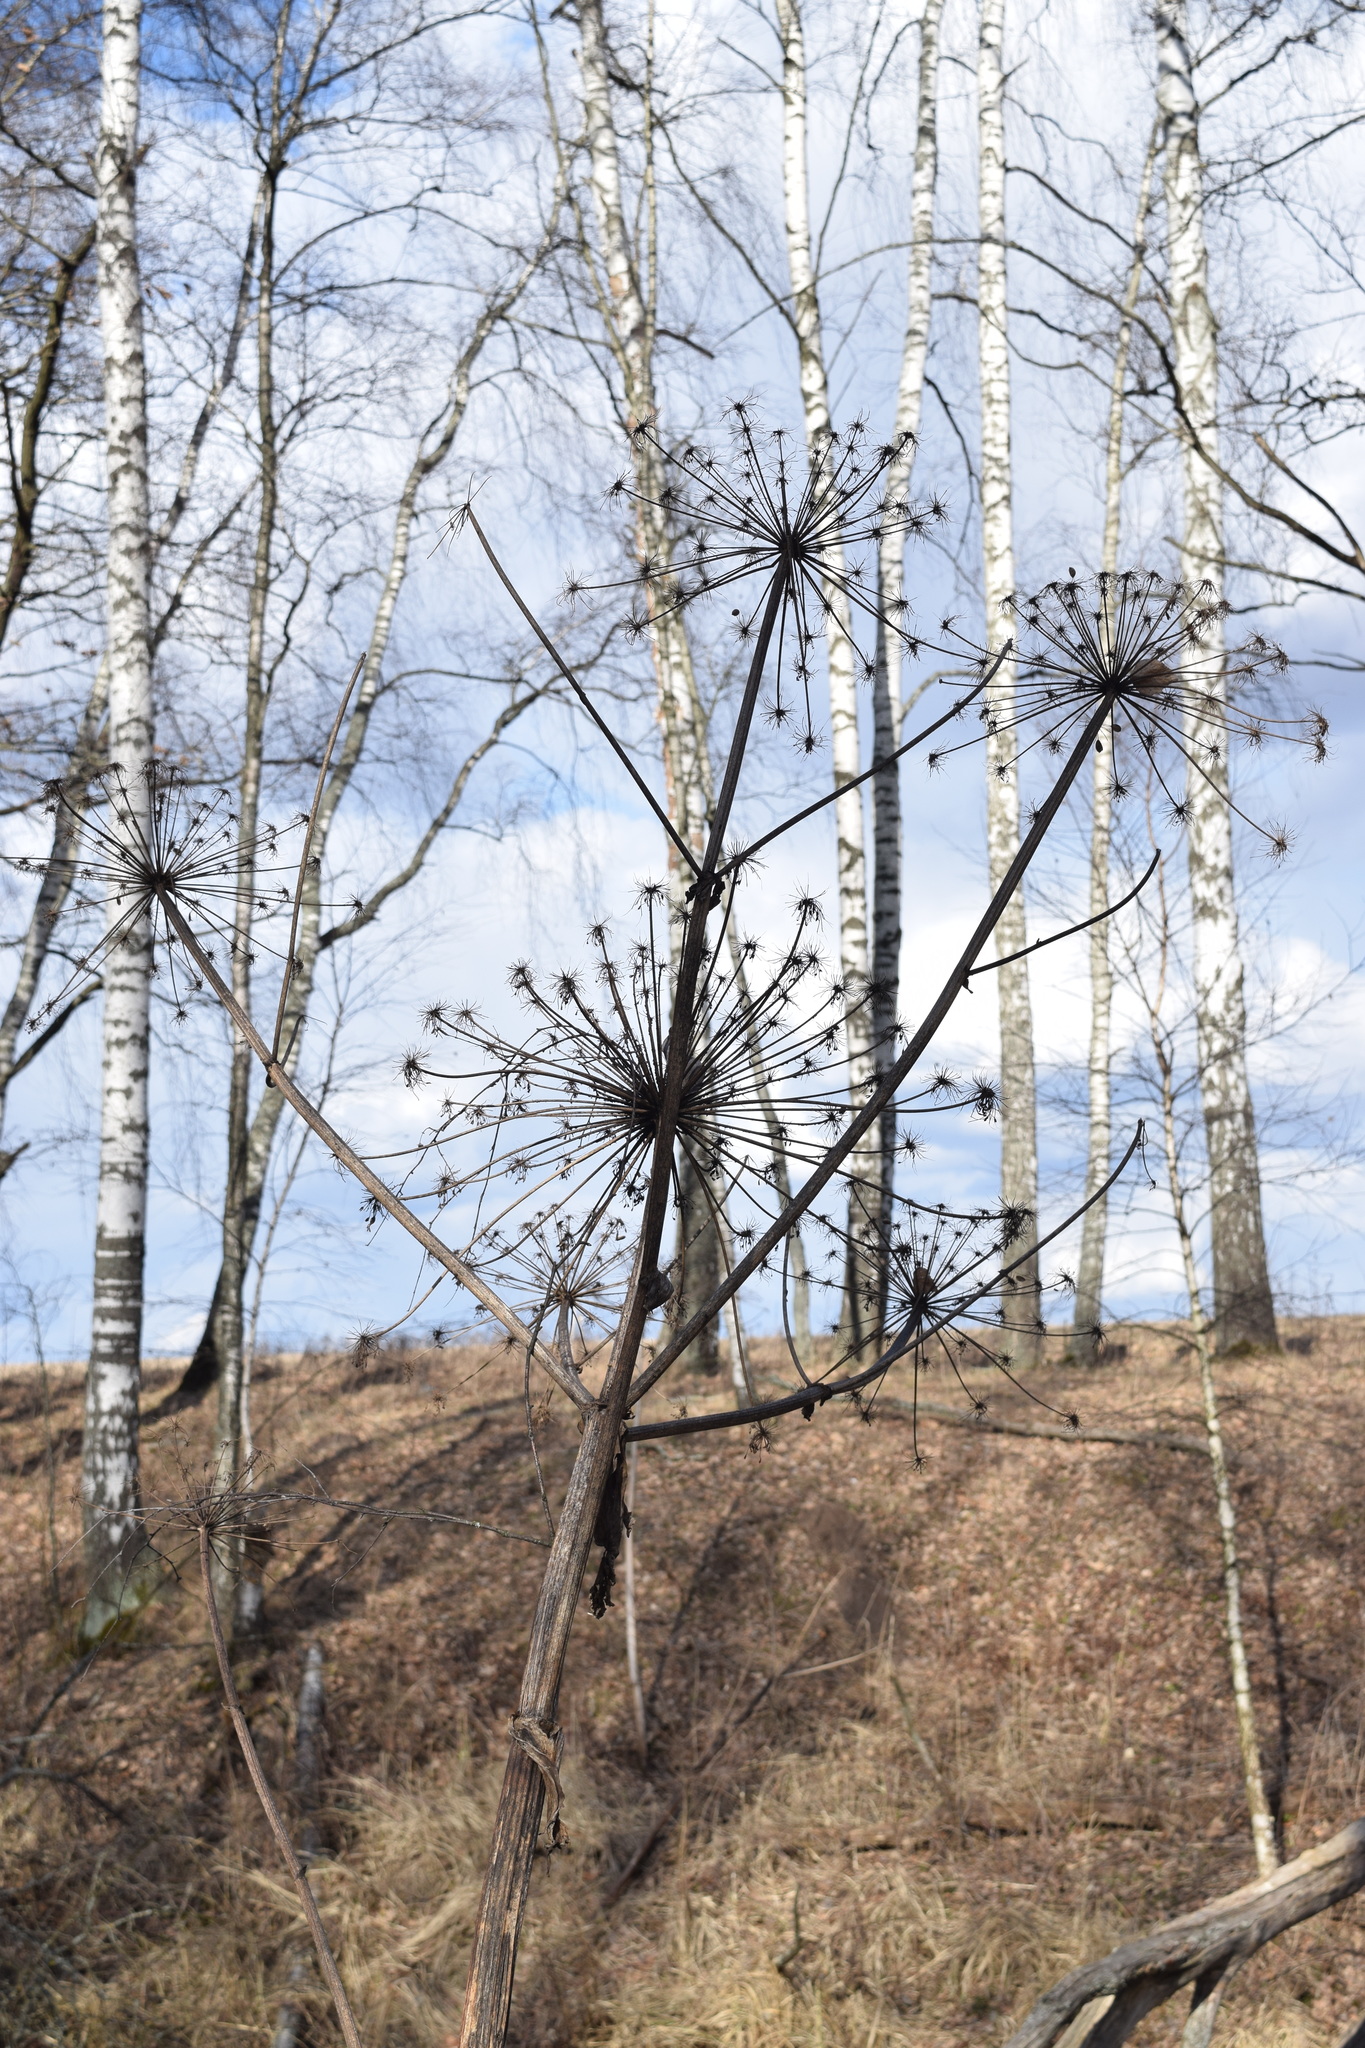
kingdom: Plantae
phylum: Tracheophyta
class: Magnoliopsida
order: Apiales
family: Apiaceae
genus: Heracleum
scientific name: Heracleum sosnowskyi
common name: Sosnowsky's hogweed
